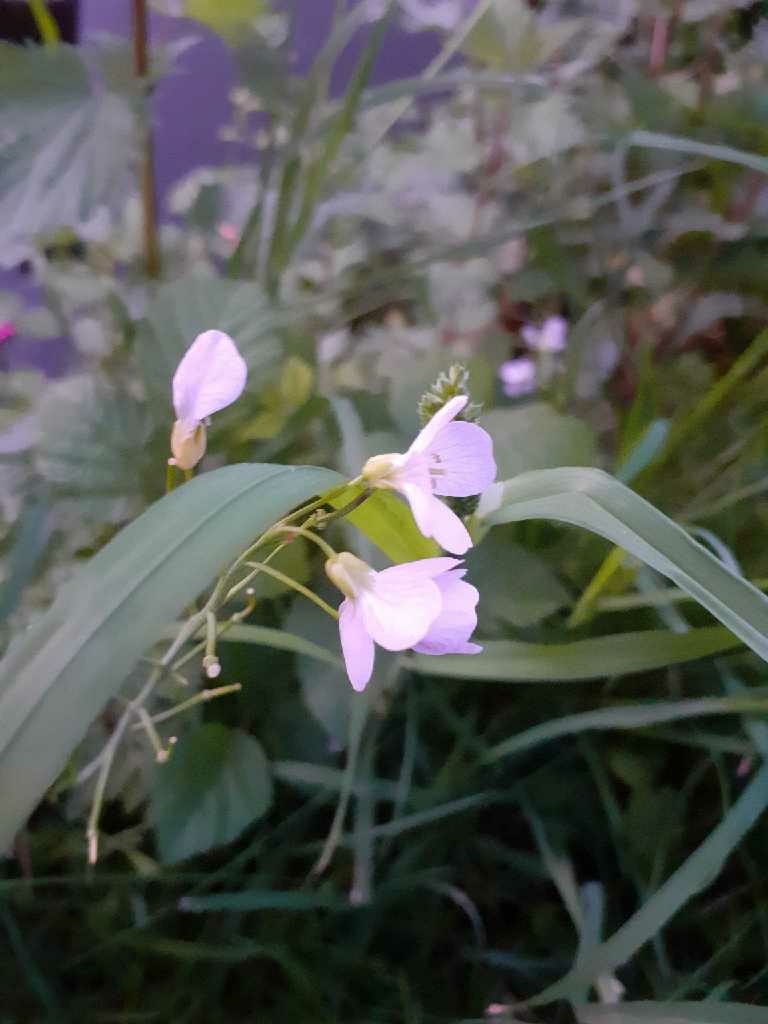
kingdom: Plantae
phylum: Tracheophyta
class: Magnoliopsida
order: Brassicales
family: Brassicaceae
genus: Cardamine
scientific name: Cardamine pratensis
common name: Cuckoo flower
